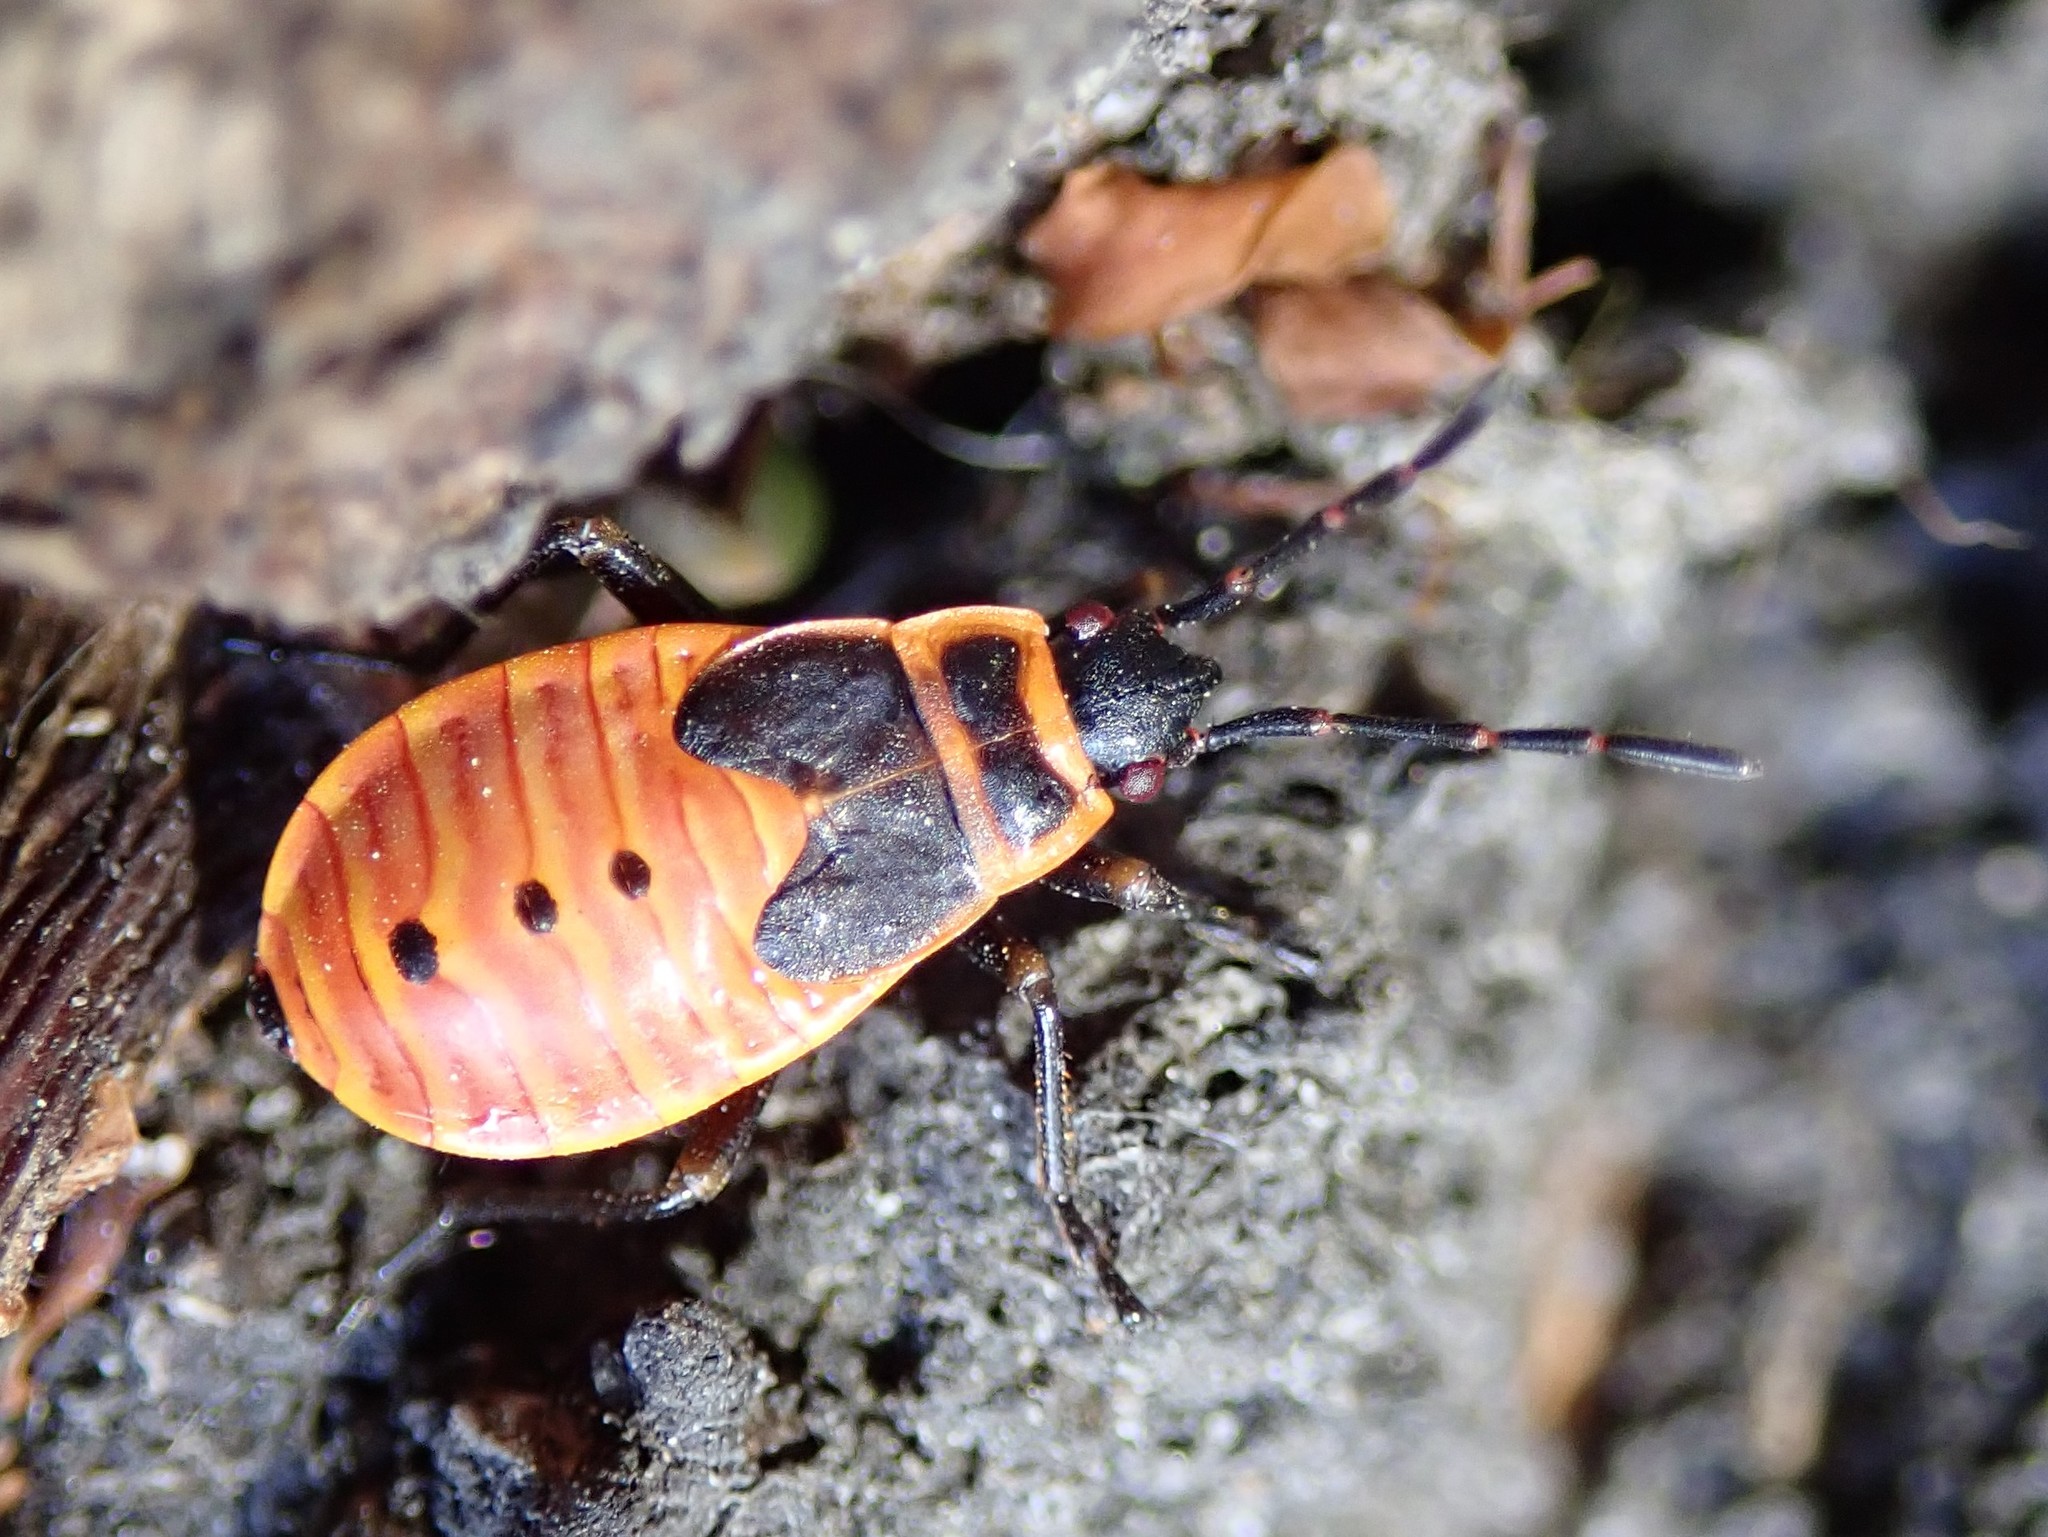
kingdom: Animalia
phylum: Arthropoda
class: Insecta
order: Hemiptera
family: Pyrrhocoridae
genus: Pyrrhocoris
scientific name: Pyrrhocoris apterus
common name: Firebug
